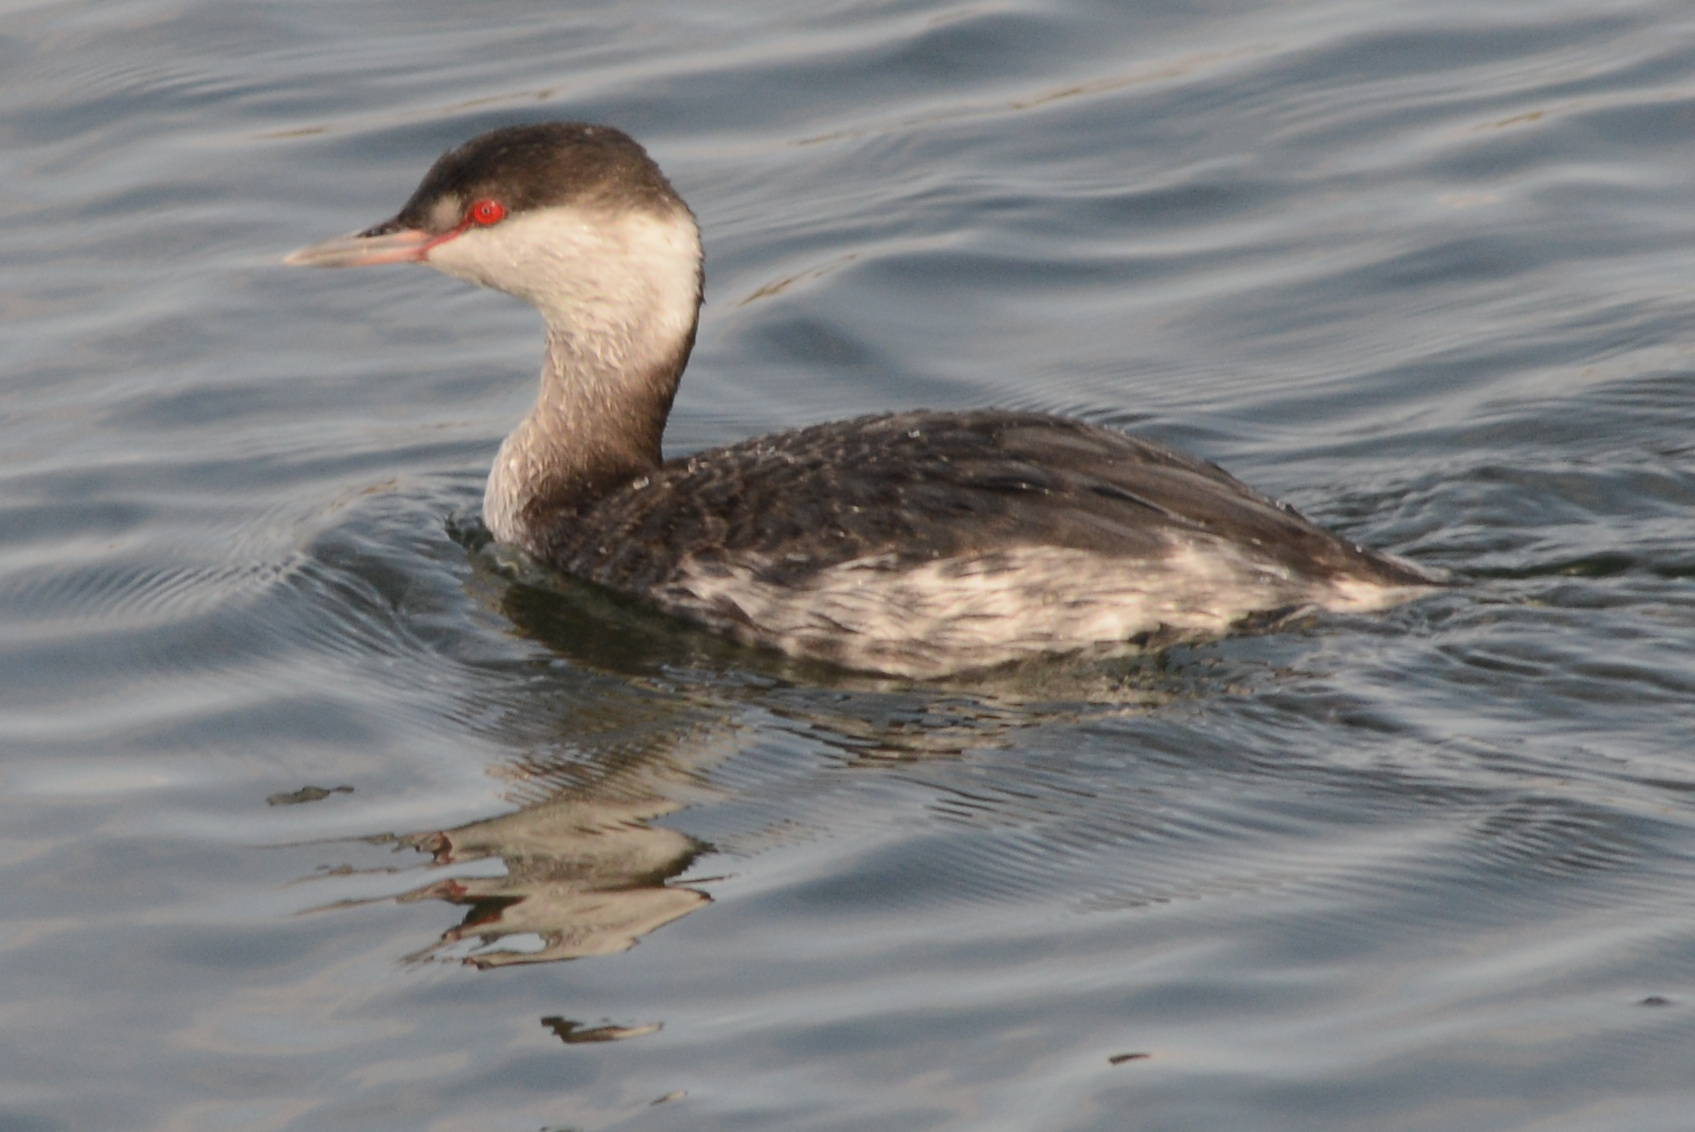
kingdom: Animalia
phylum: Chordata
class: Aves
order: Podicipediformes
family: Podicipedidae
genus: Podiceps
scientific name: Podiceps auritus
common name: Horned grebe
